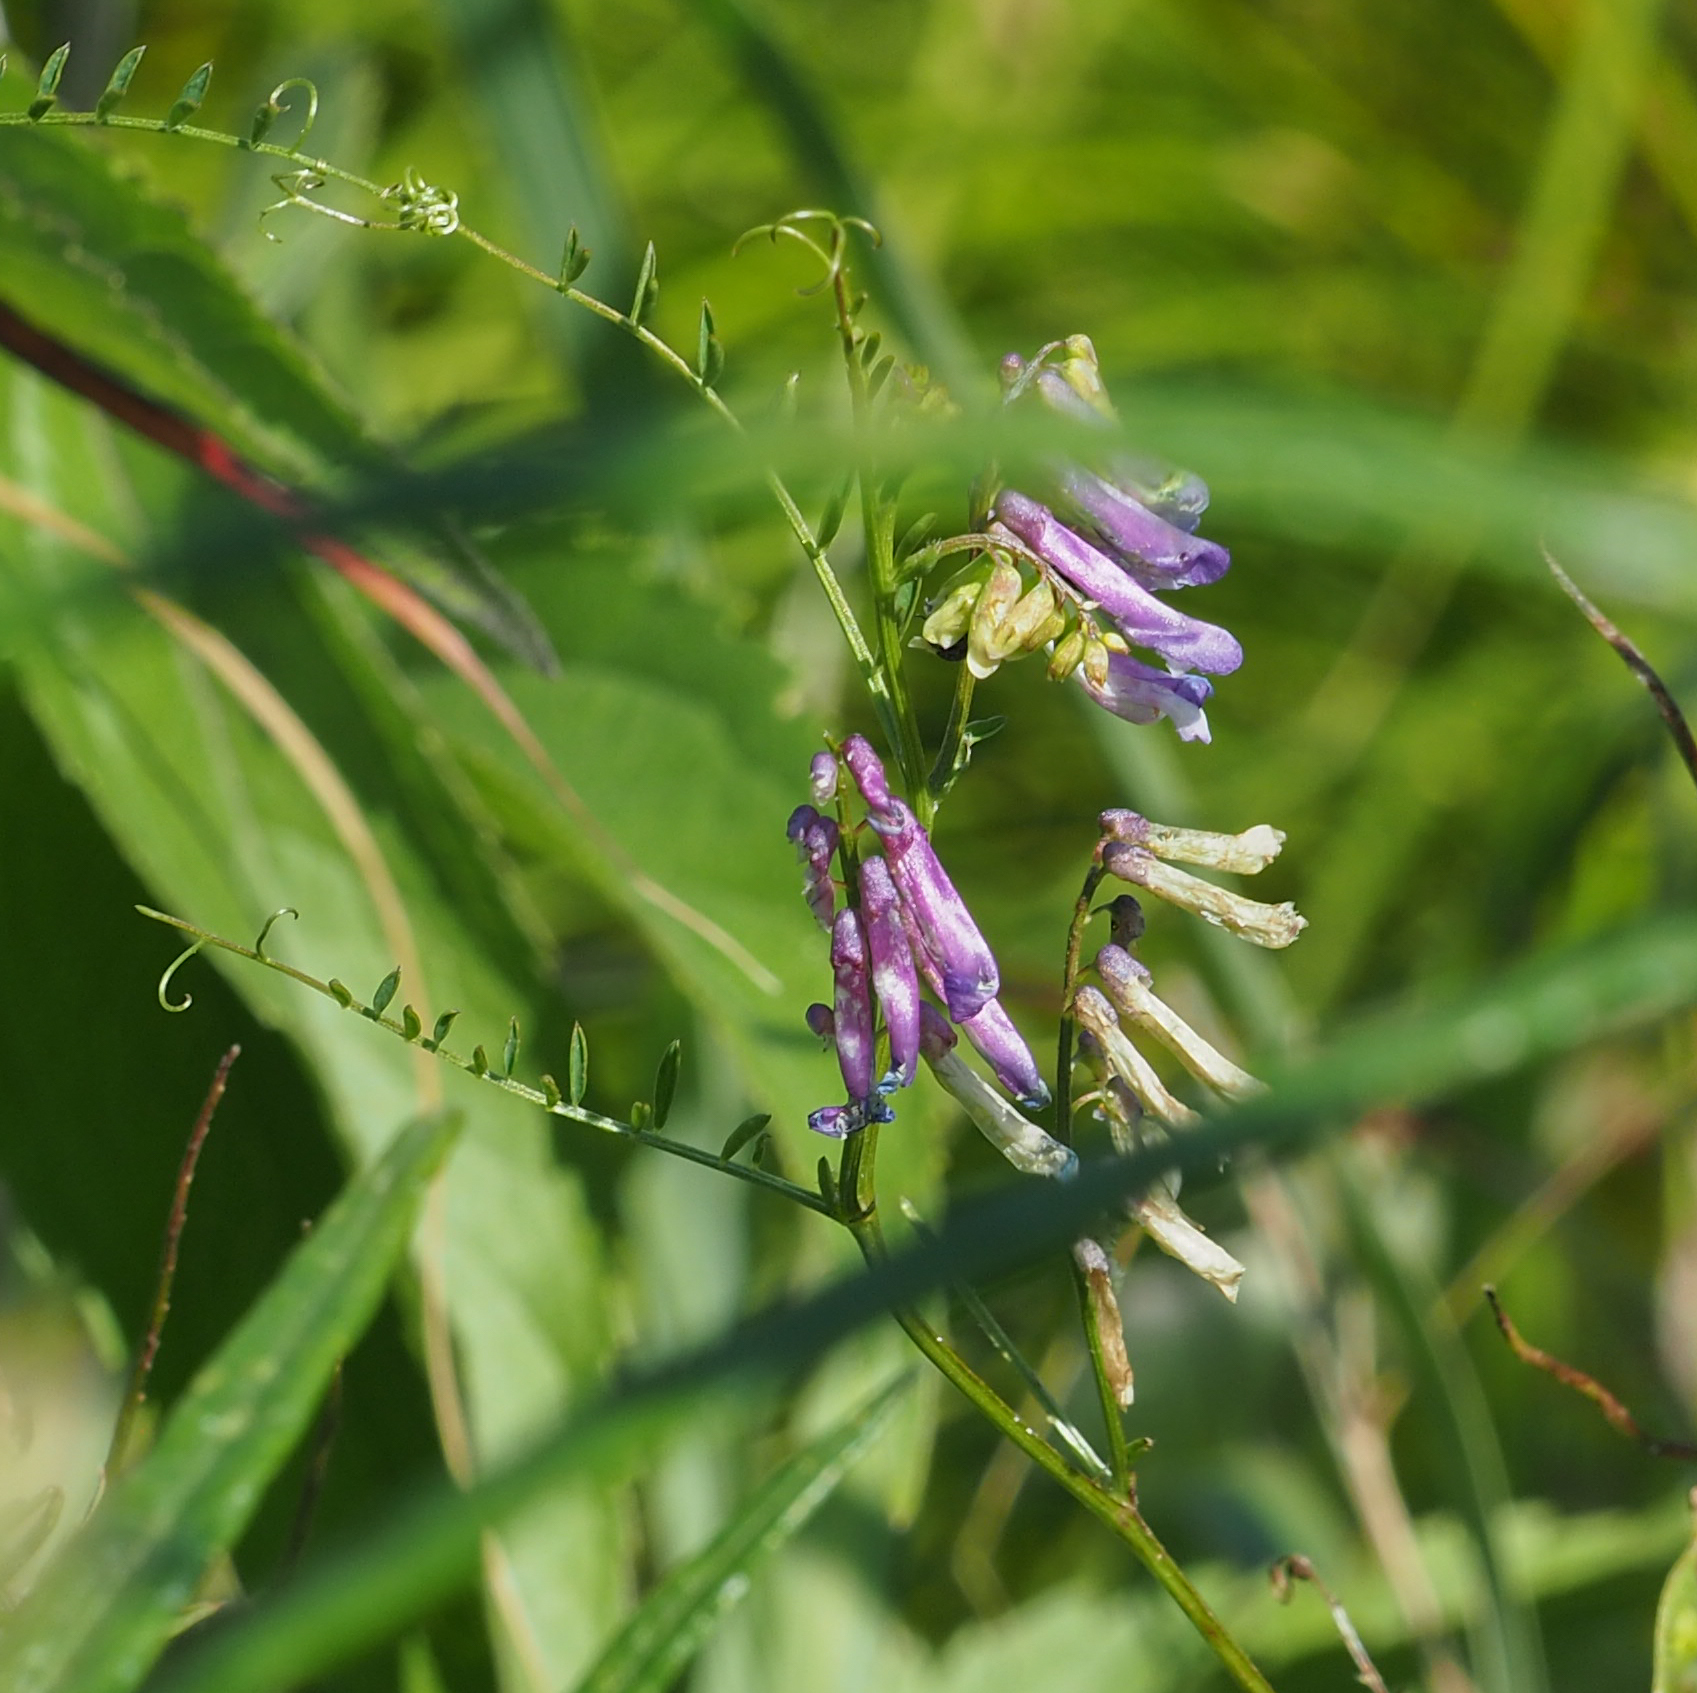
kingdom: Plantae
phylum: Tracheophyta
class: Magnoliopsida
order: Fabales
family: Fabaceae
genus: Vicia
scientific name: Vicia villosa
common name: Fodder vetch
